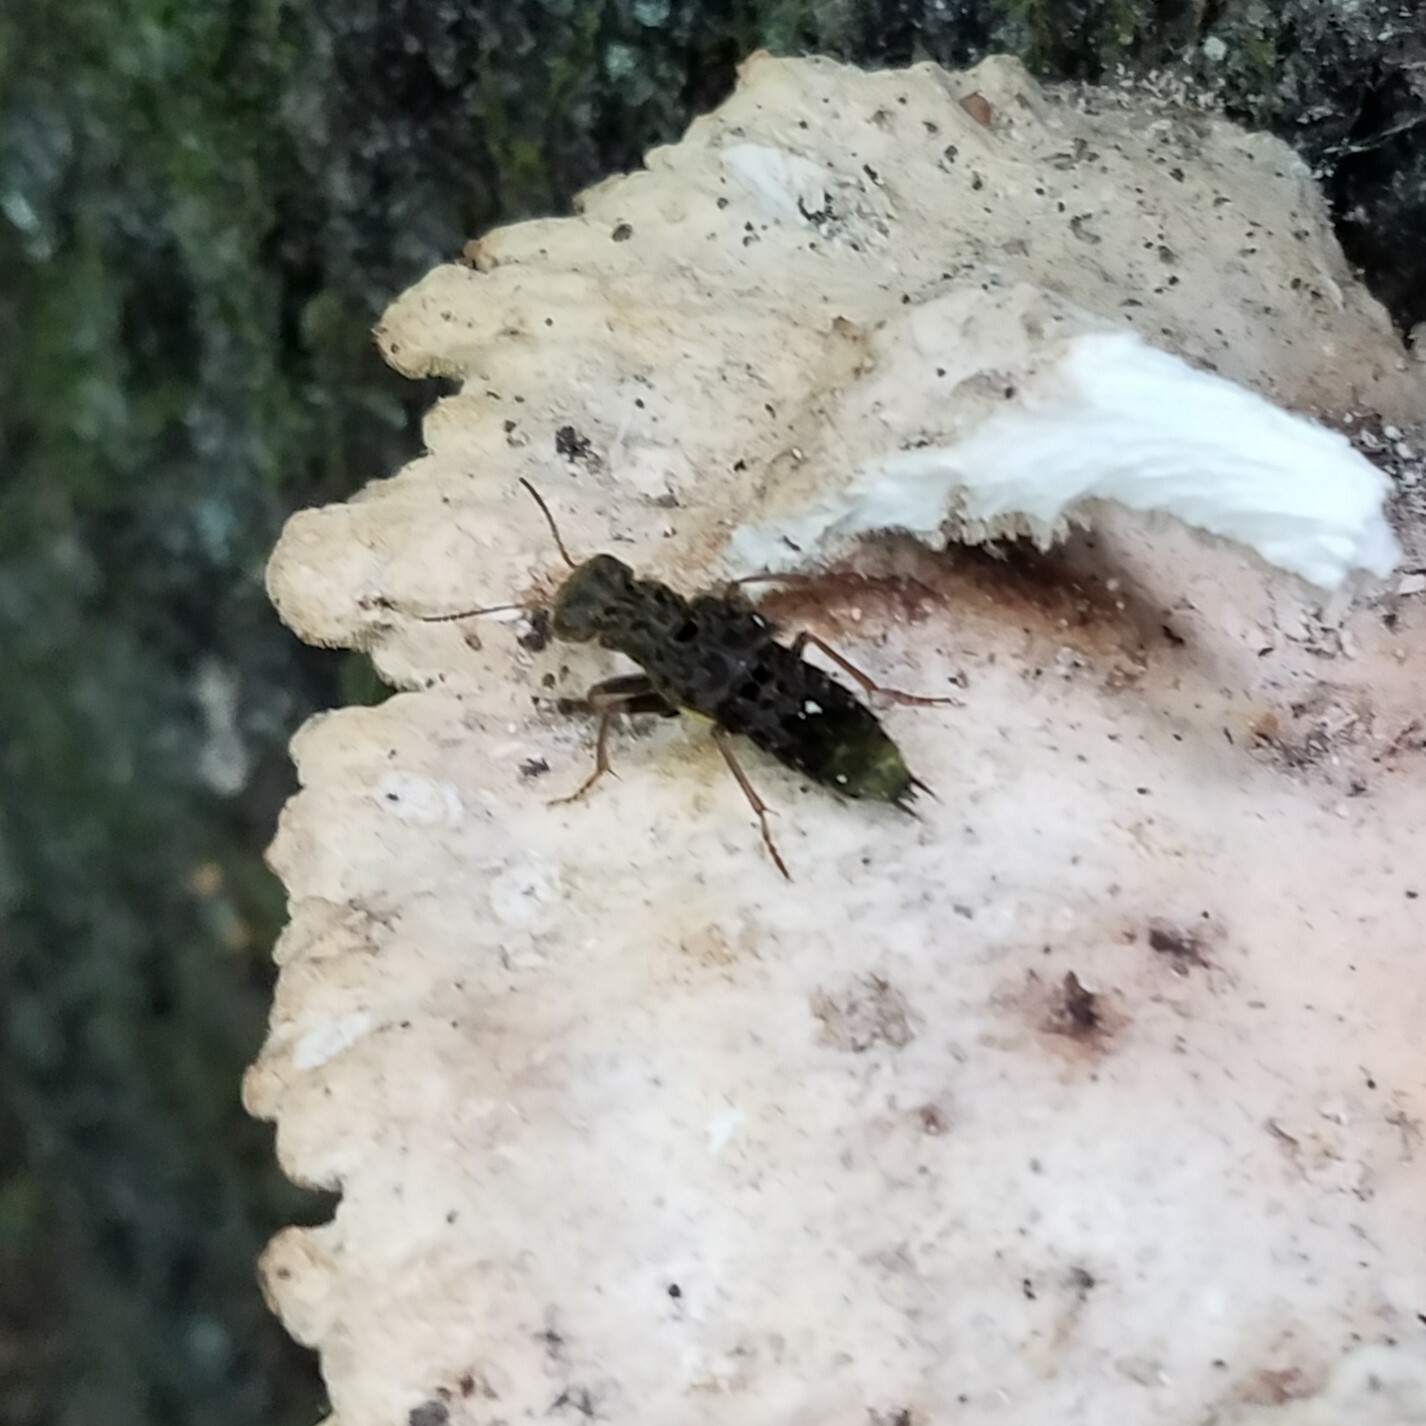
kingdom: Animalia
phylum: Arthropoda
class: Insecta
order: Coleoptera
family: Staphylinidae
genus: Ontholestes
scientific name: Ontholestes cingulatus
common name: Gold-and-brown rove beetle
